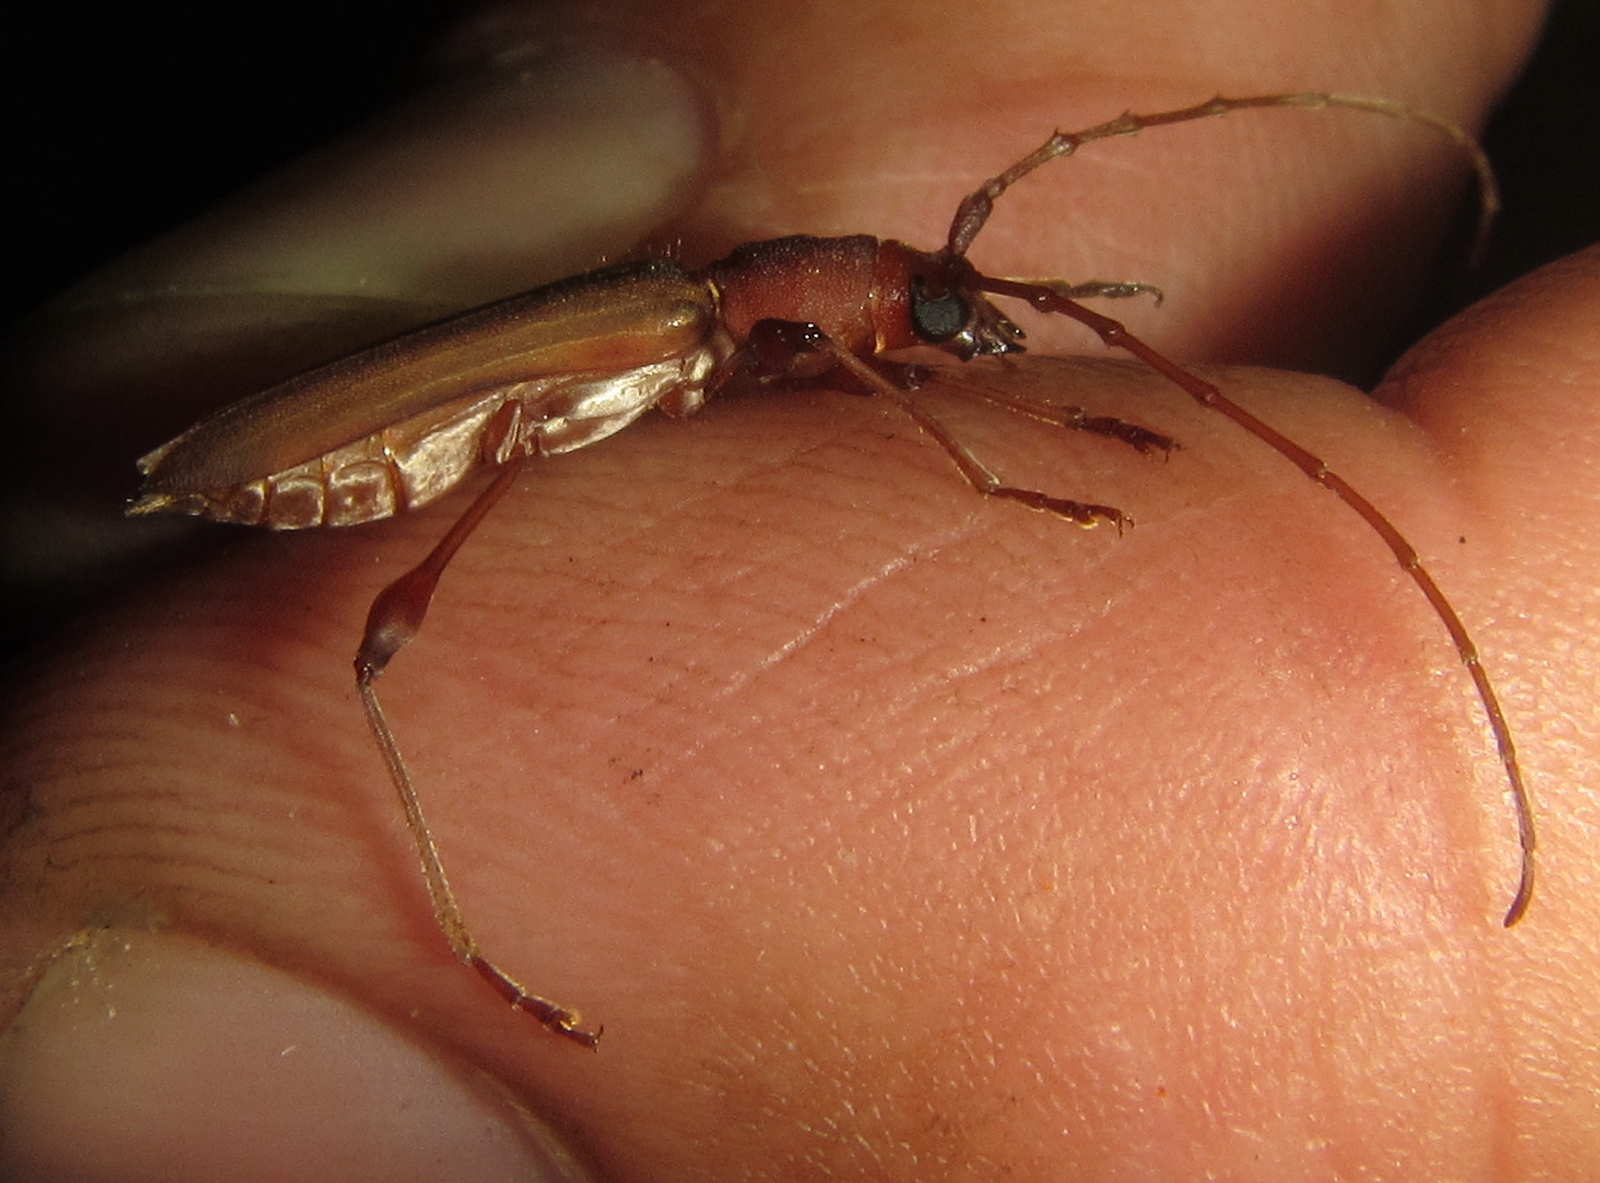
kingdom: Animalia
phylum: Arthropoda
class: Insecta
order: Coleoptera
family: Cerambycidae
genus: Cordylomera
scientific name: Cordylomera karschi
